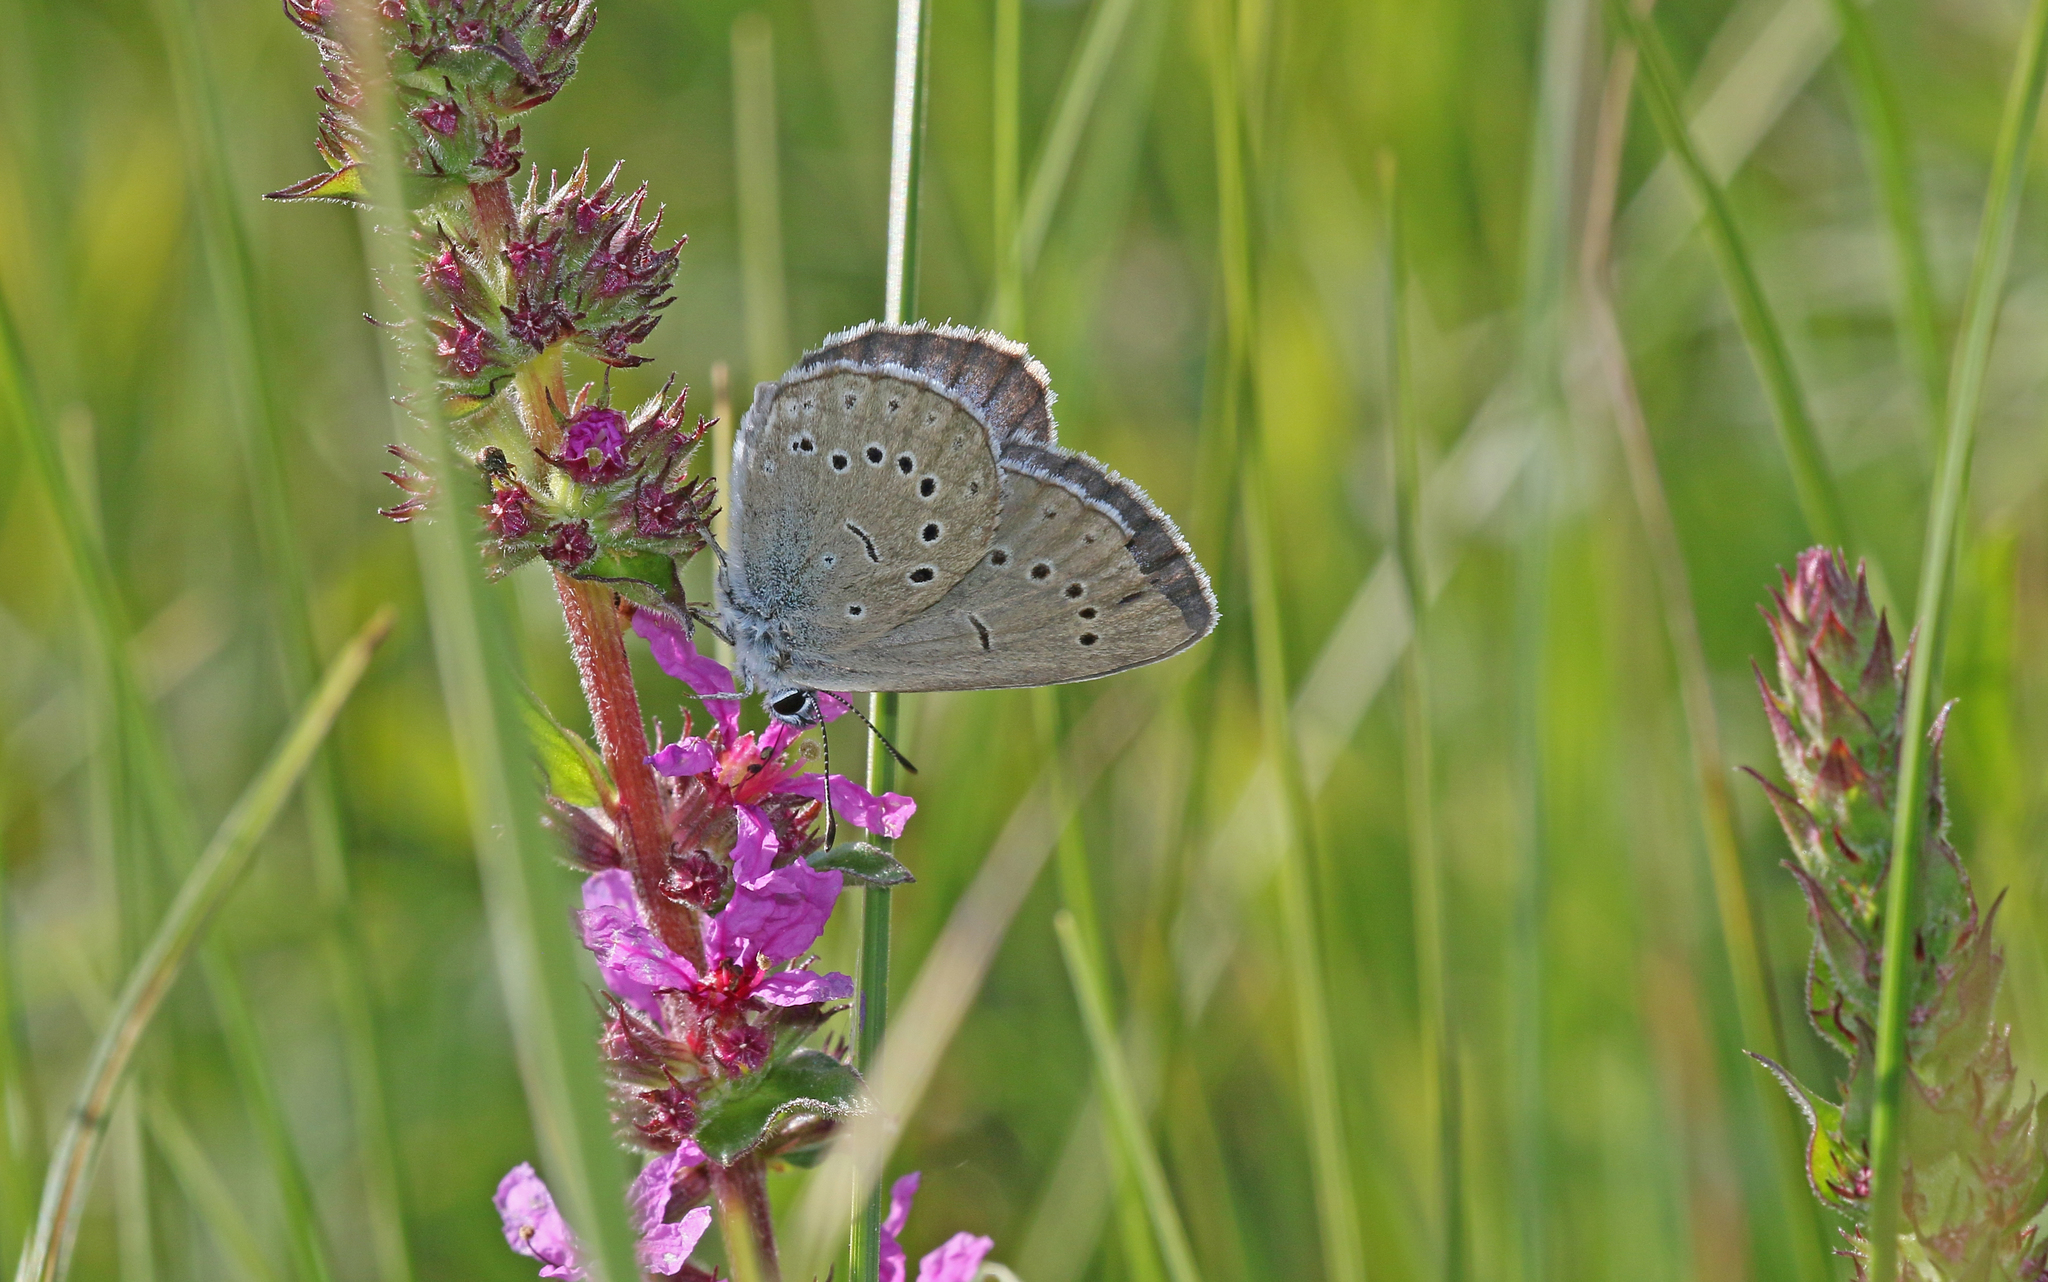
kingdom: Animalia
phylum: Arthropoda
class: Insecta
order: Lepidoptera
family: Lycaenidae
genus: Phengaris
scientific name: Phengaris teleius
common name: Scarce large blue
